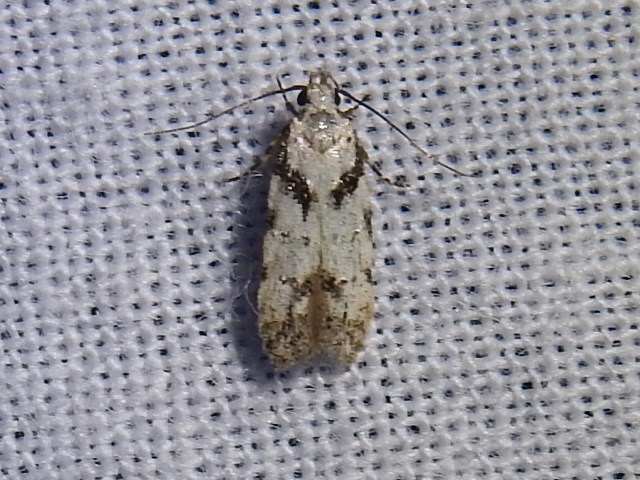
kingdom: Animalia
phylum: Arthropoda
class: Insecta
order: Lepidoptera
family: Gelechiidae
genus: Pseudotelphusa
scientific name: Pseudotelphusa palliderosacella
